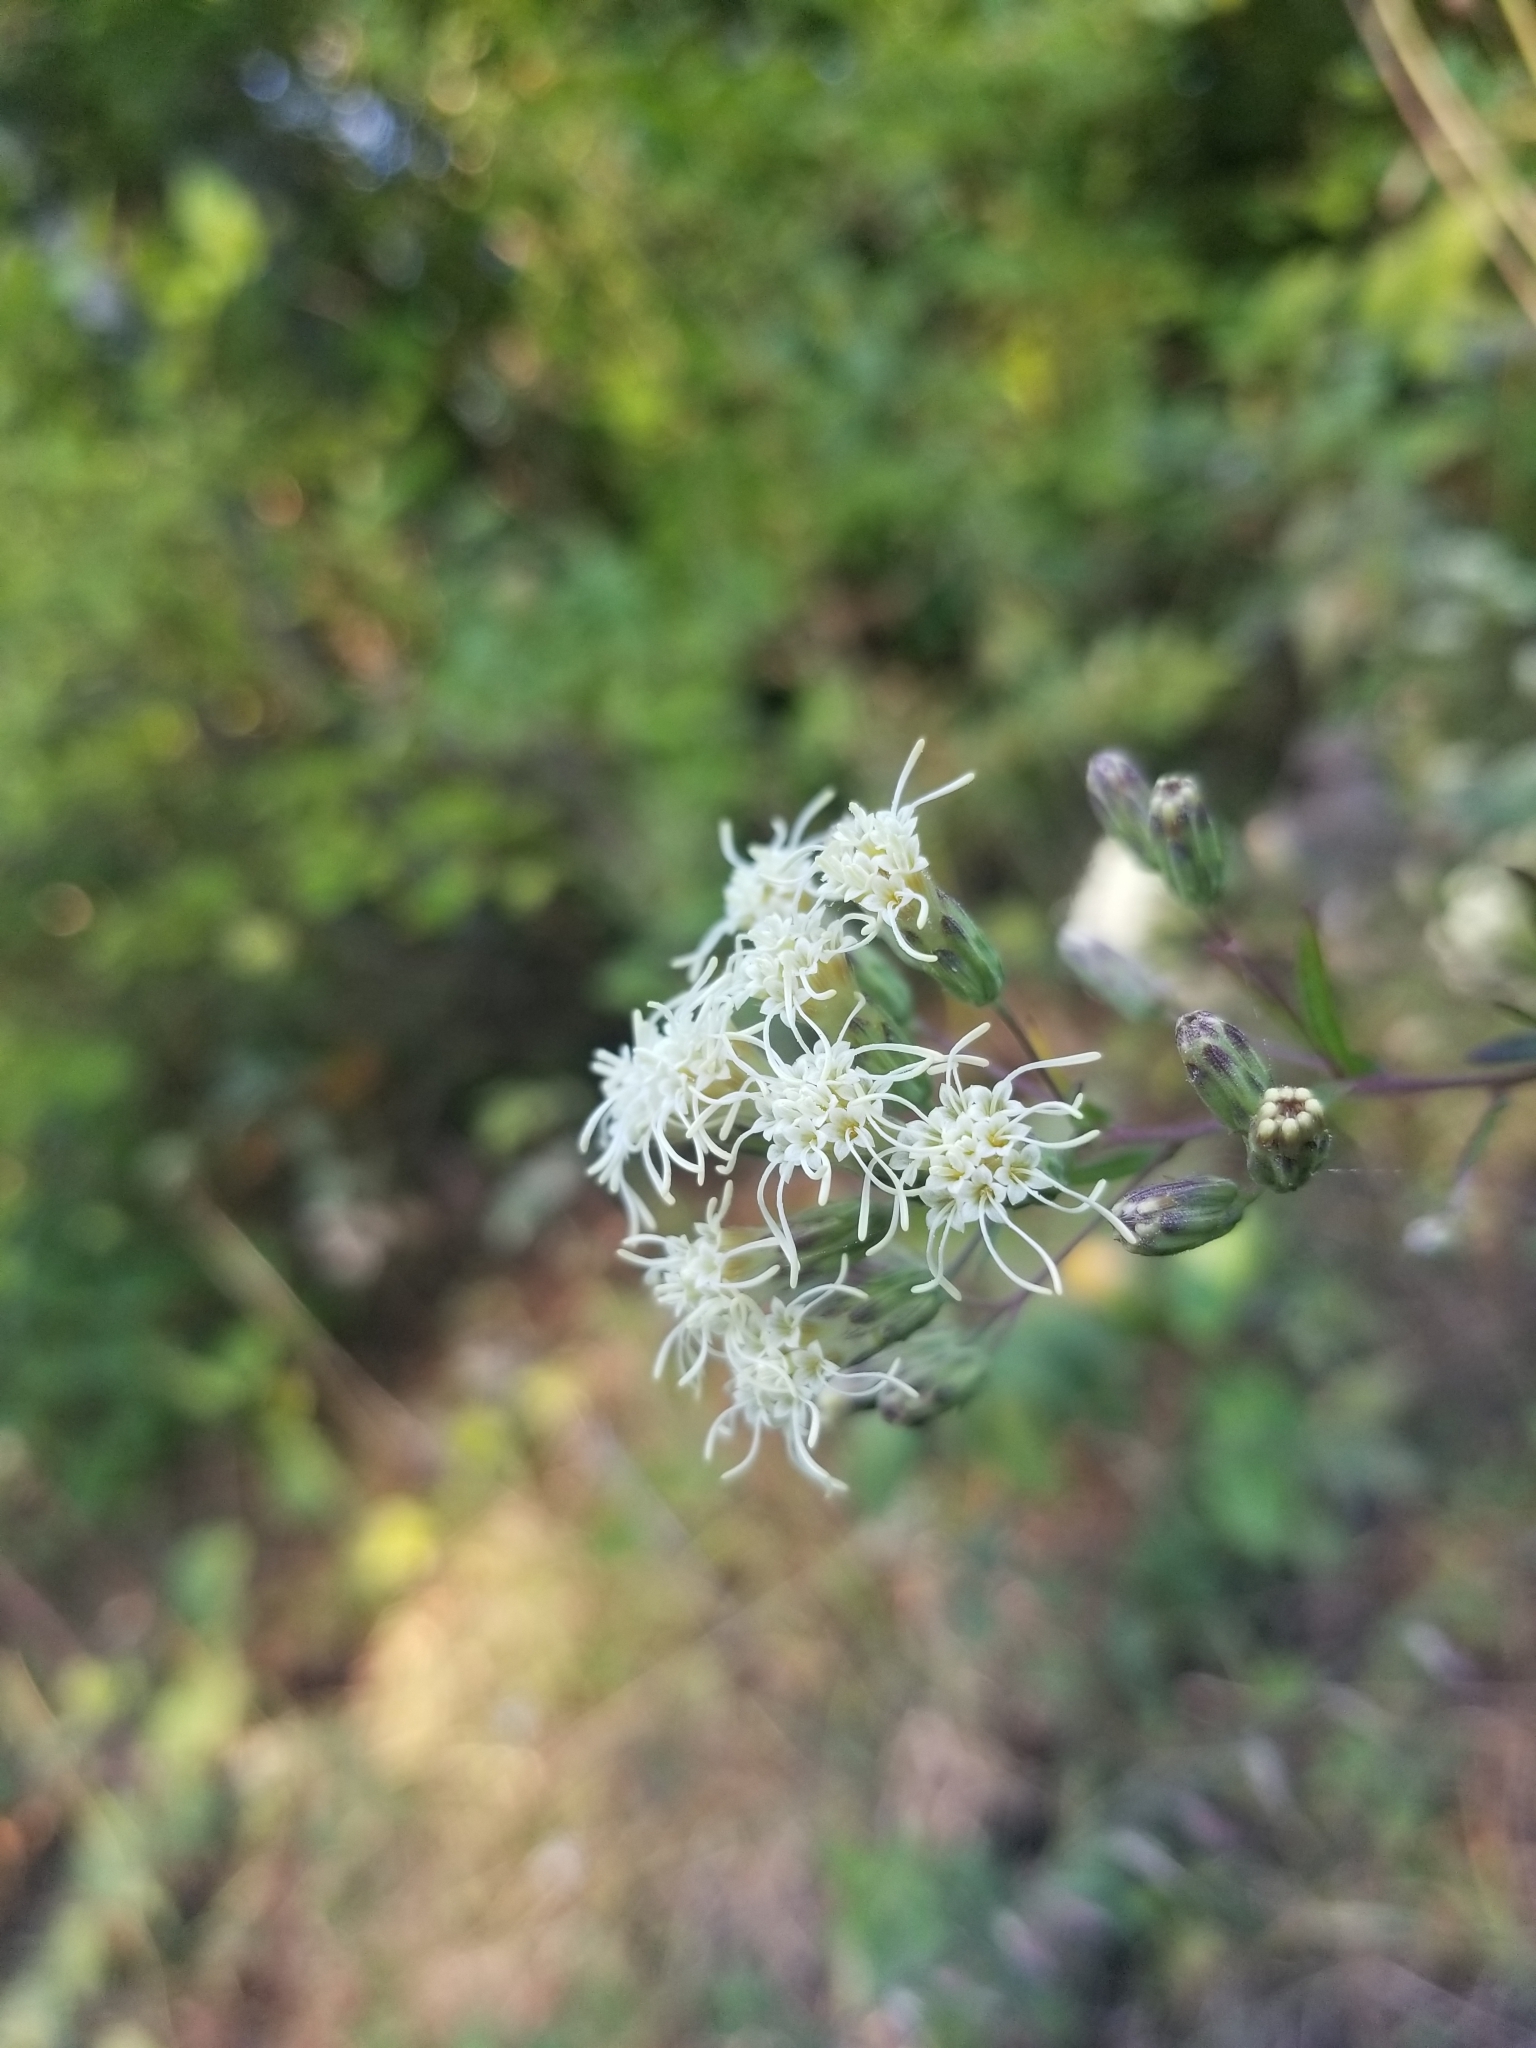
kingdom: Plantae
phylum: Tracheophyta
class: Magnoliopsida
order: Asterales
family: Asteraceae
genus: Brickellia
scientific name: Brickellia eupatorioides
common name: False boneset
